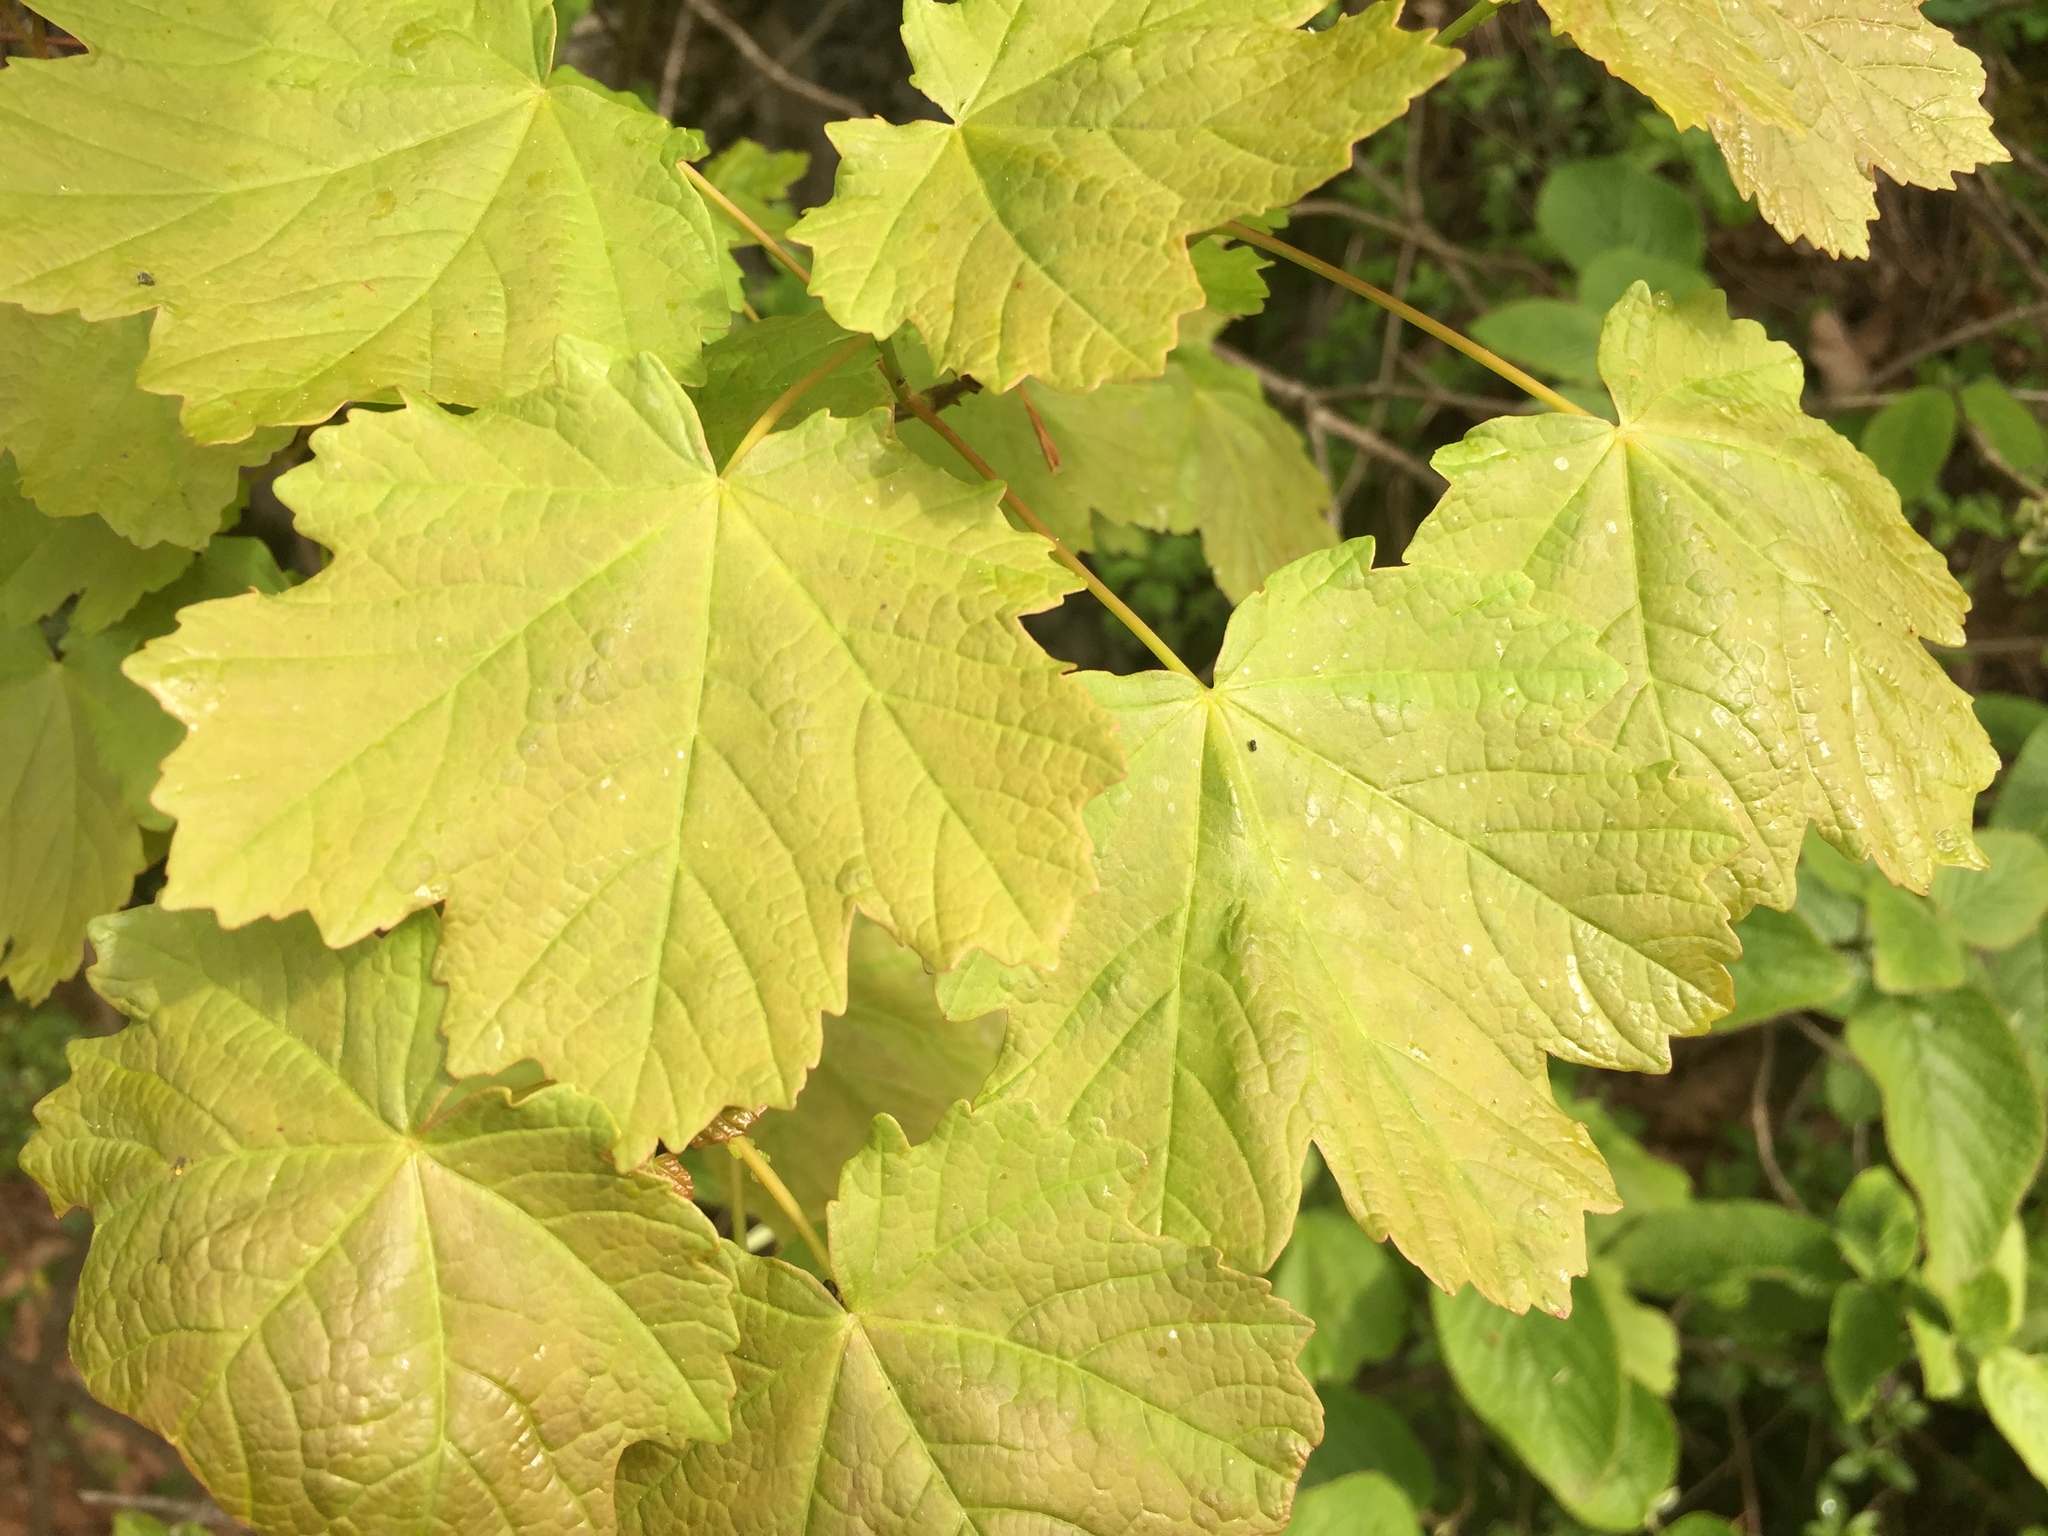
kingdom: Plantae
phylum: Tracheophyta
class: Magnoliopsida
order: Sapindales
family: Sapindaceae
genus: Acer
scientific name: Acer opalus
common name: Italian maple
